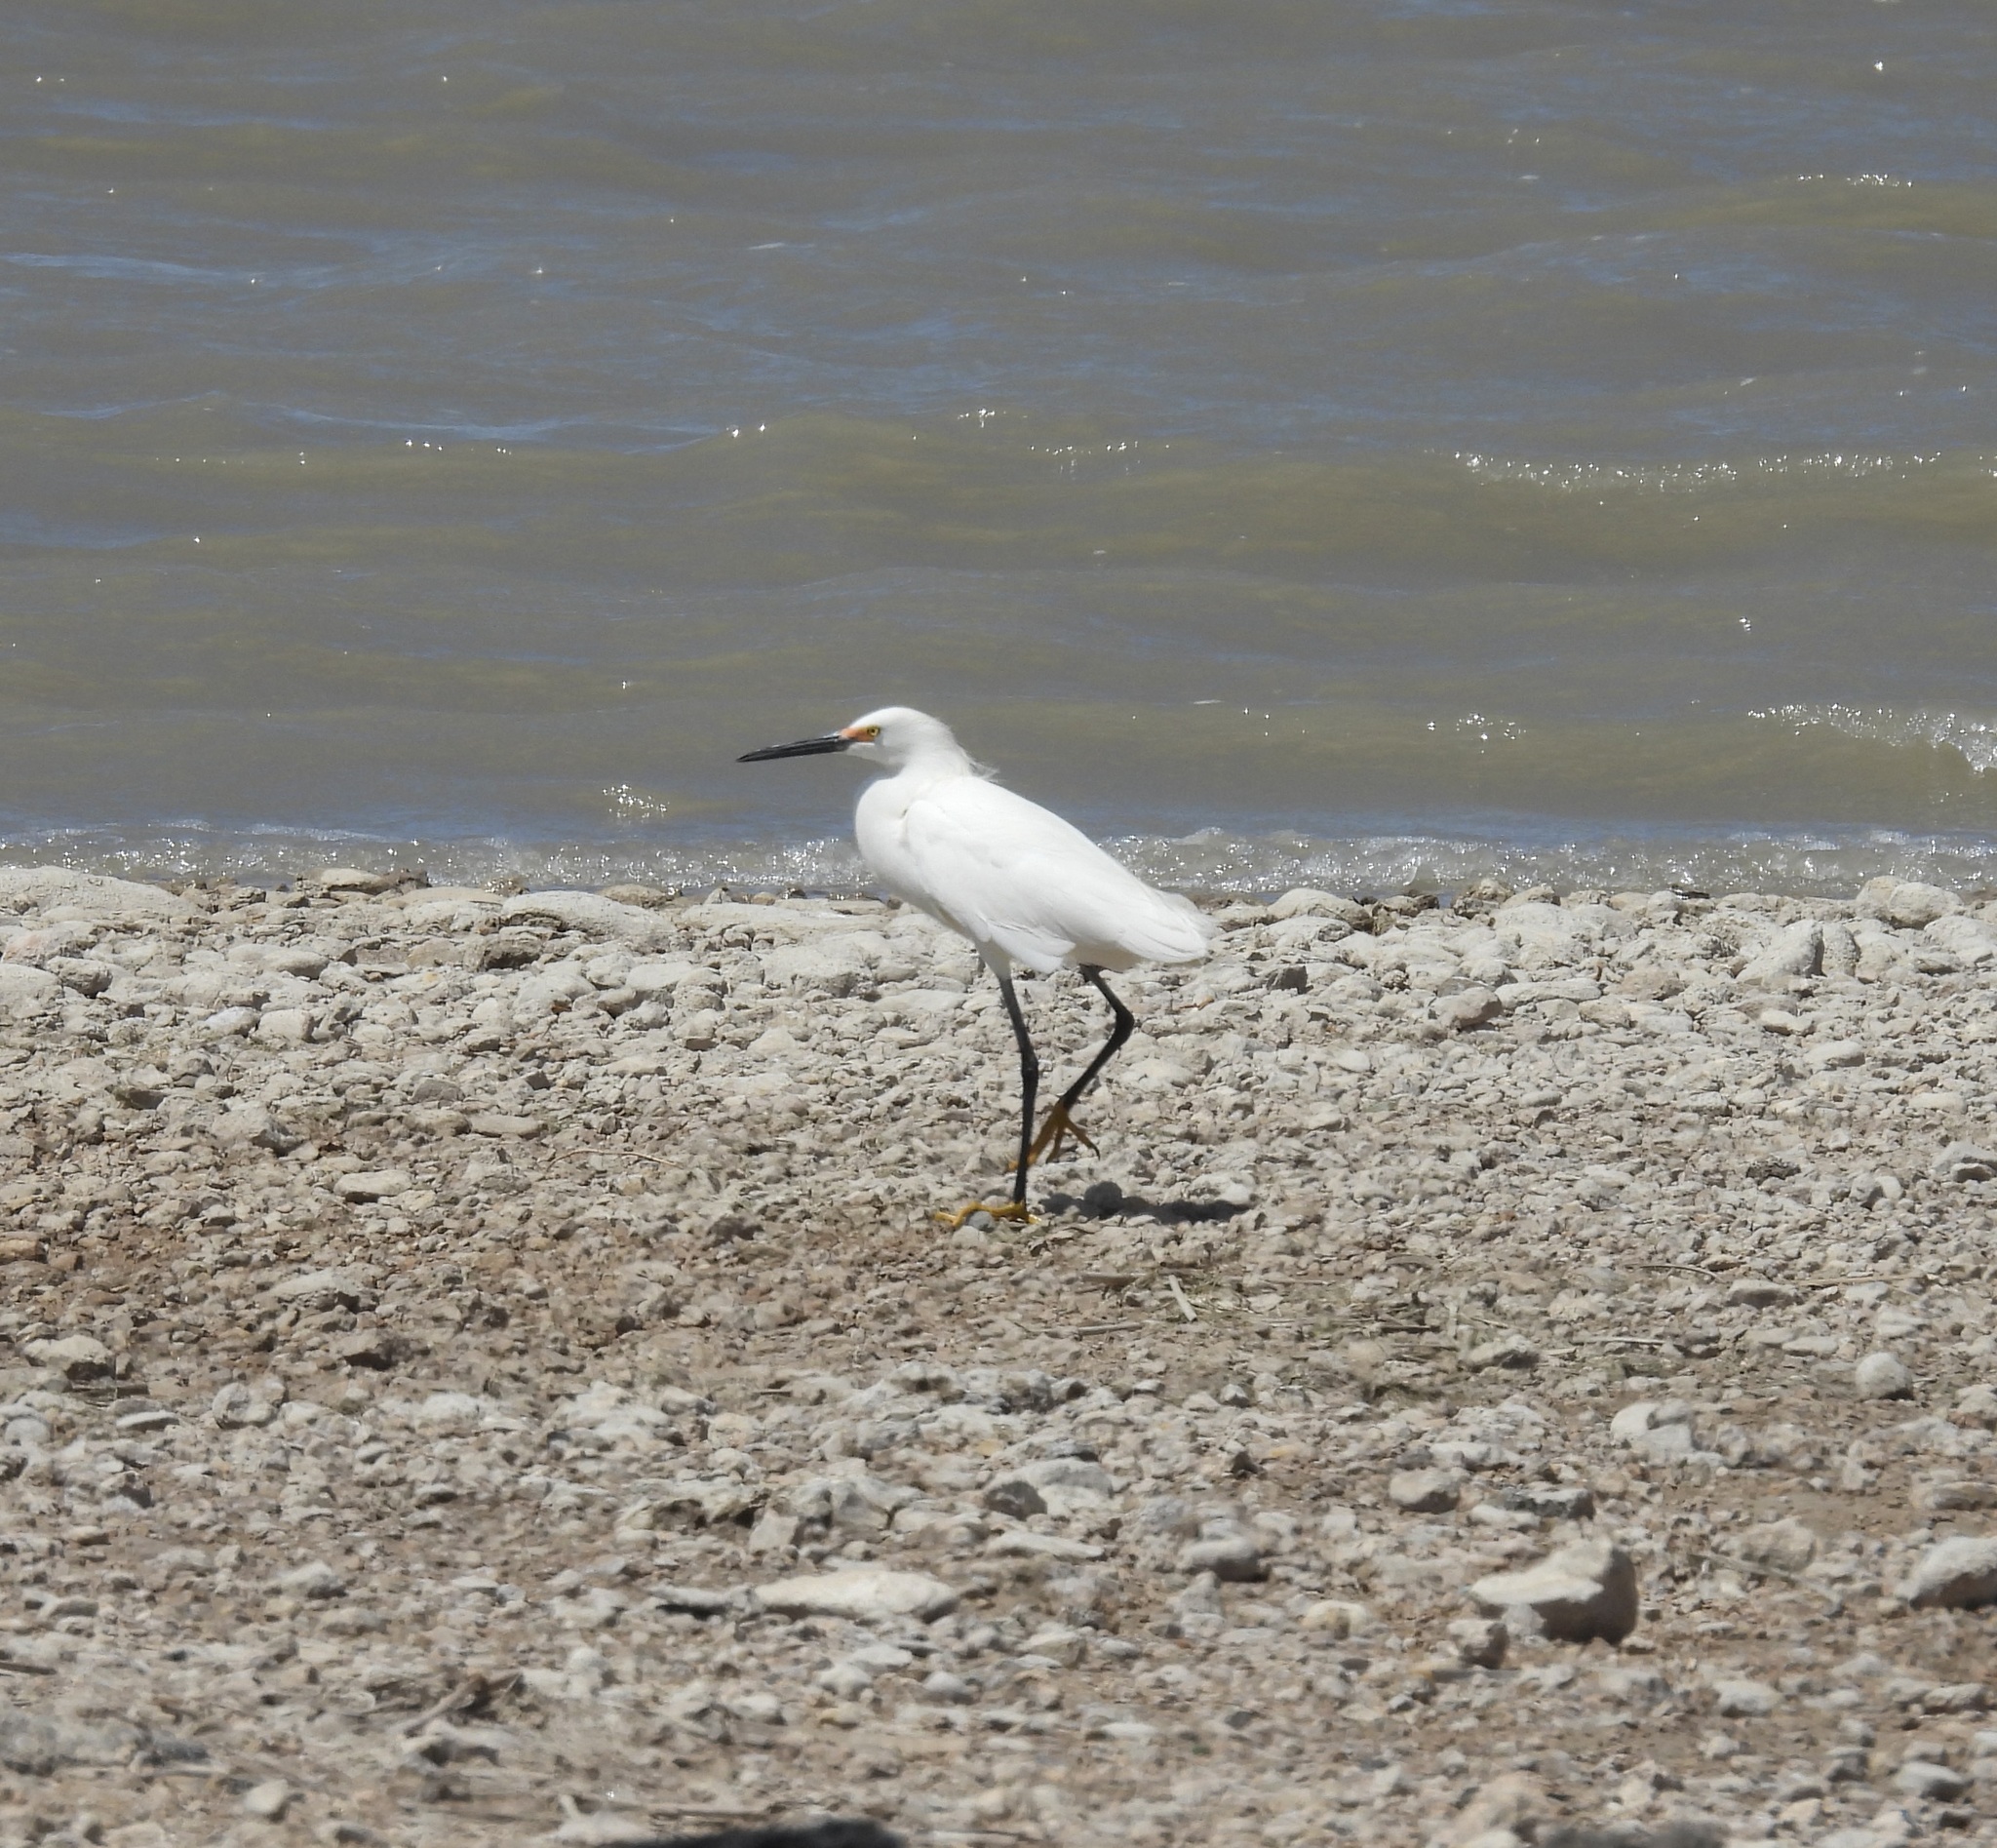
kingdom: Animalia
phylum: Chordata
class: Aves
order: Pelecaniformes
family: Ardeidae
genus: Egretta
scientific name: Egretta thula
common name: Snowy egret
